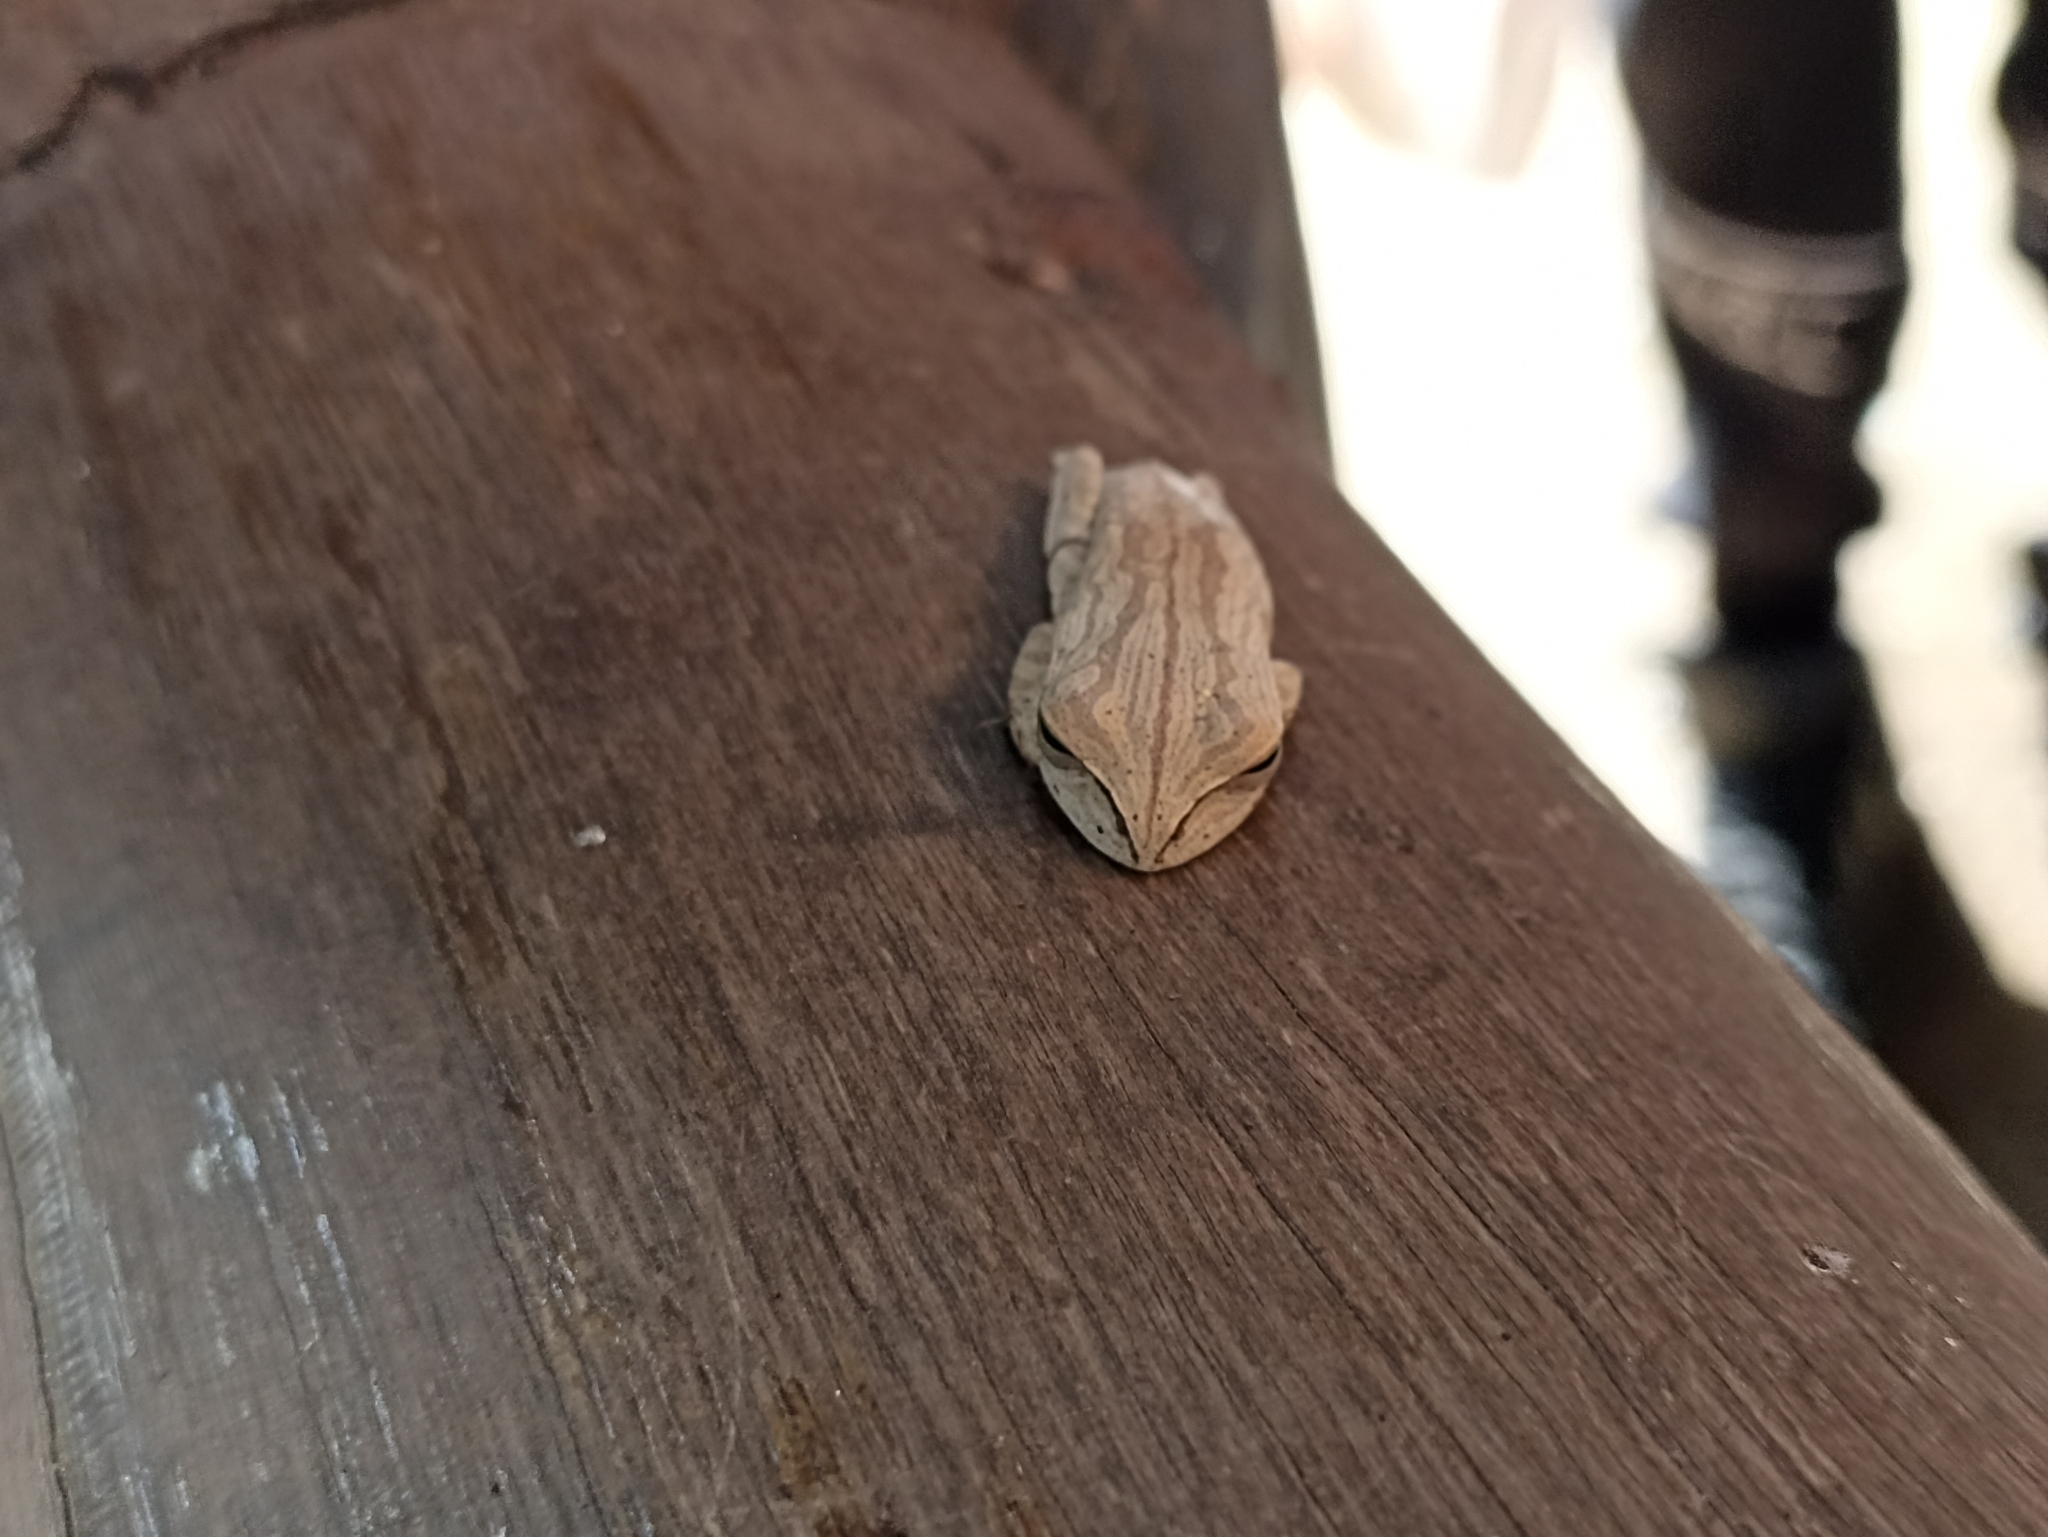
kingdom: Animalia
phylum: Chordata
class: Amphibia
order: Anura
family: Hylidae
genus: Boana
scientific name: Boana bischoffi
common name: Bischoff's treefrog
